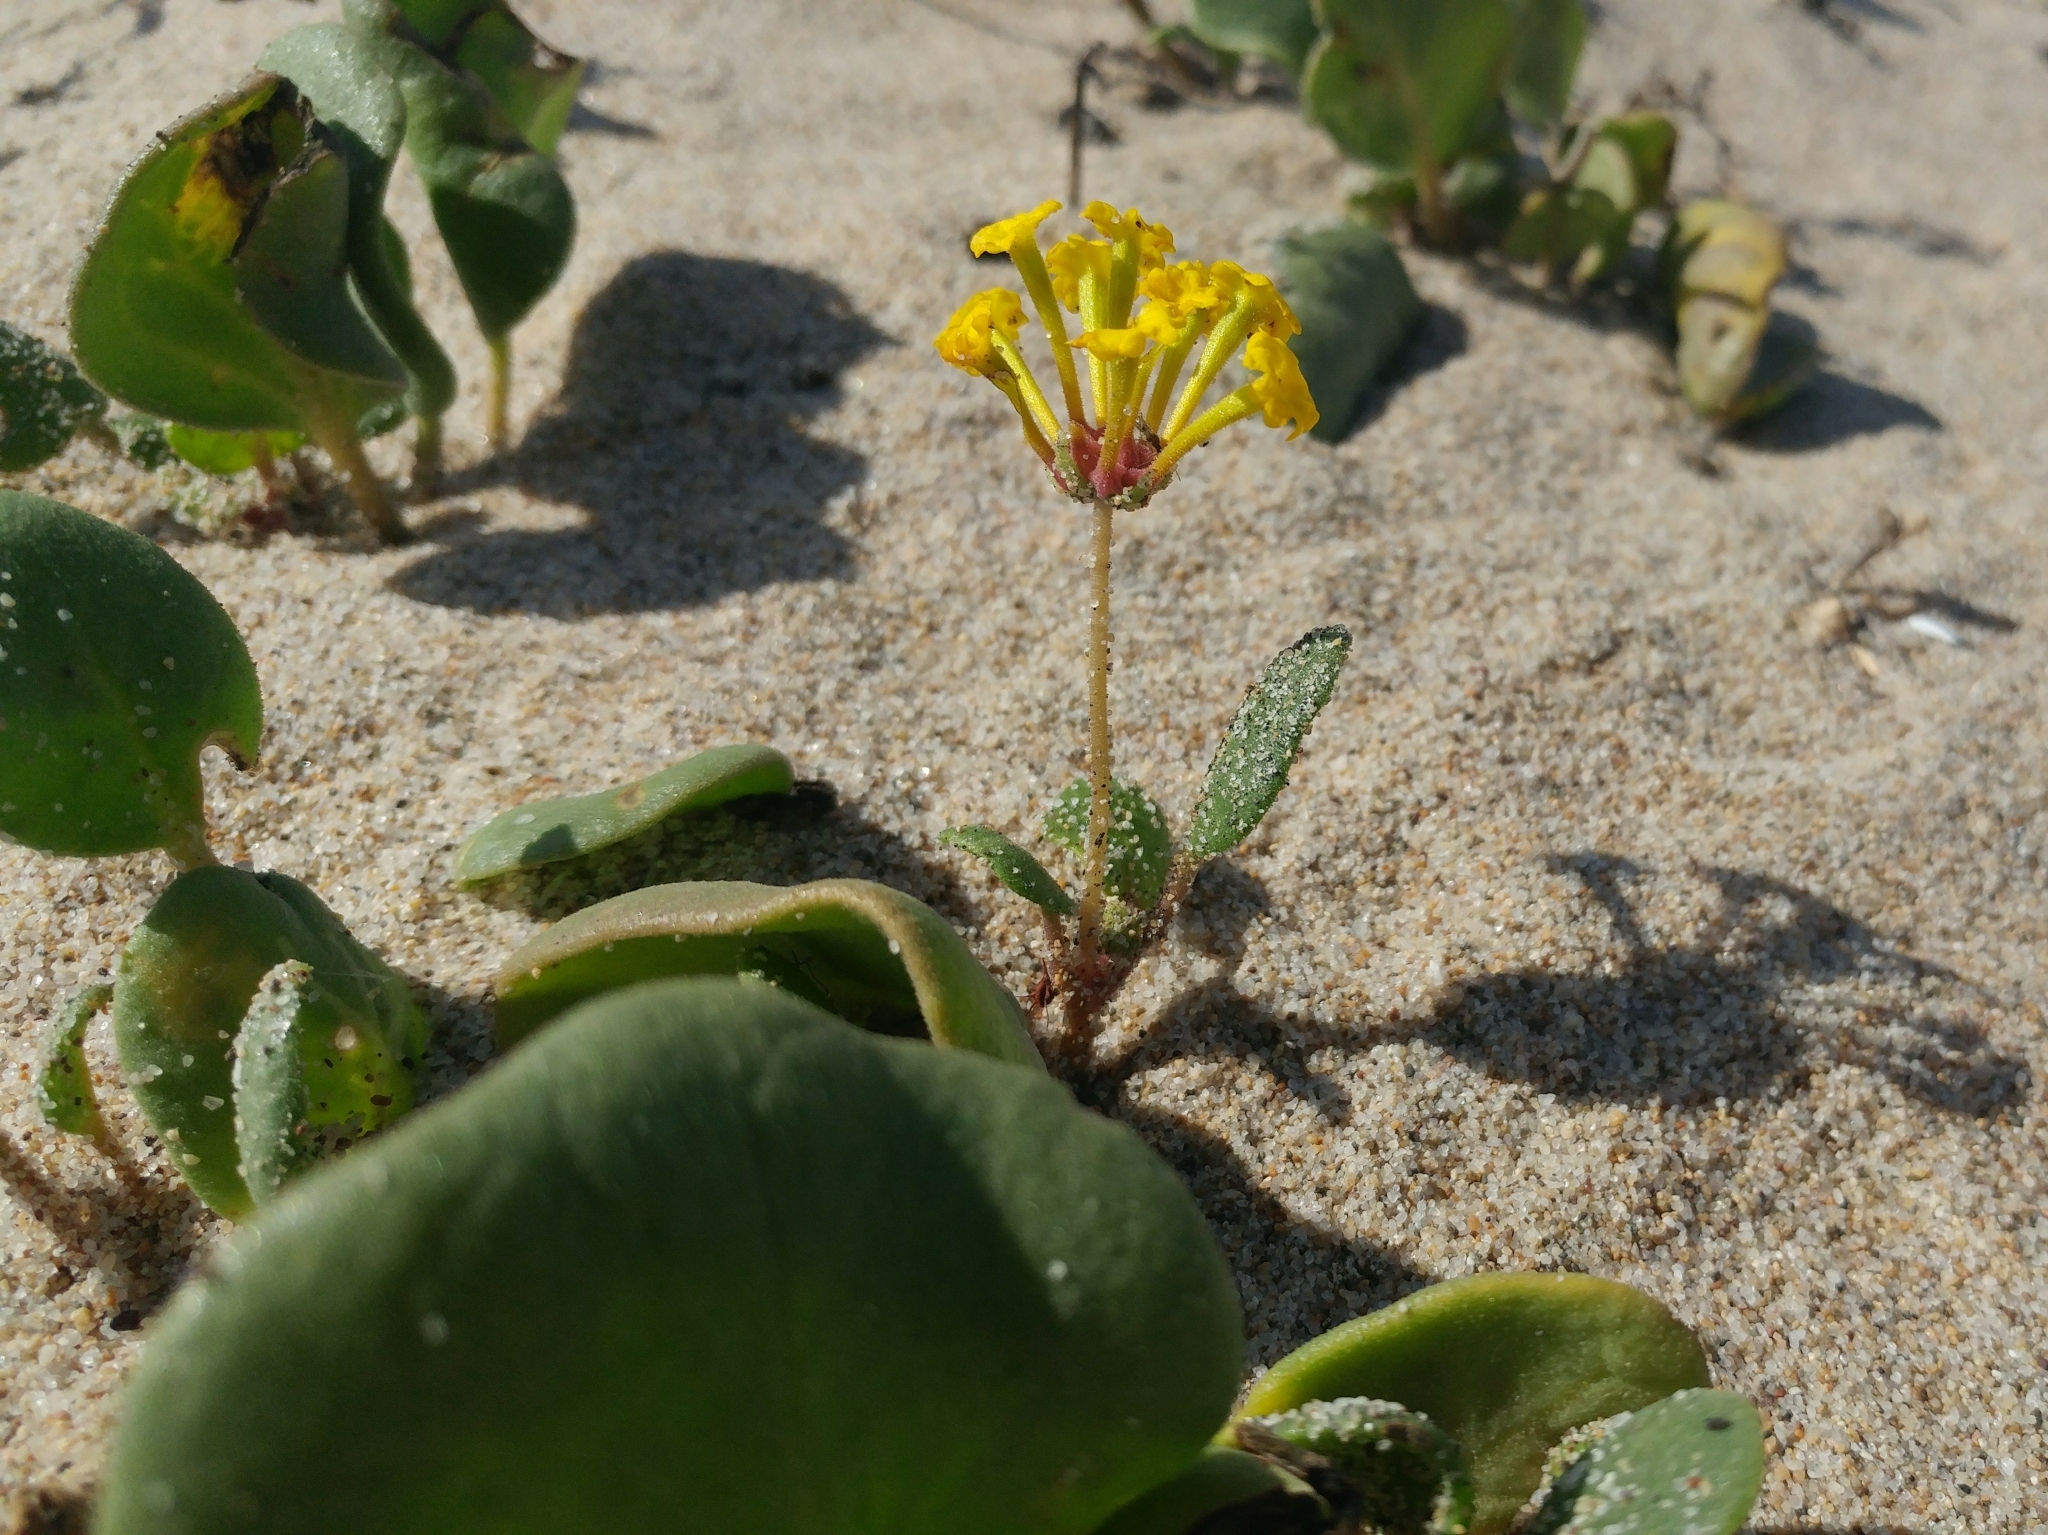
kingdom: Plantae
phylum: Tracheophyta
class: Magnoliopsida
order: Caryophyllales
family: Nyctaginaceae
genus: Abronia
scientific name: Abronia latifolia
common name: Yellow sand-verbena
